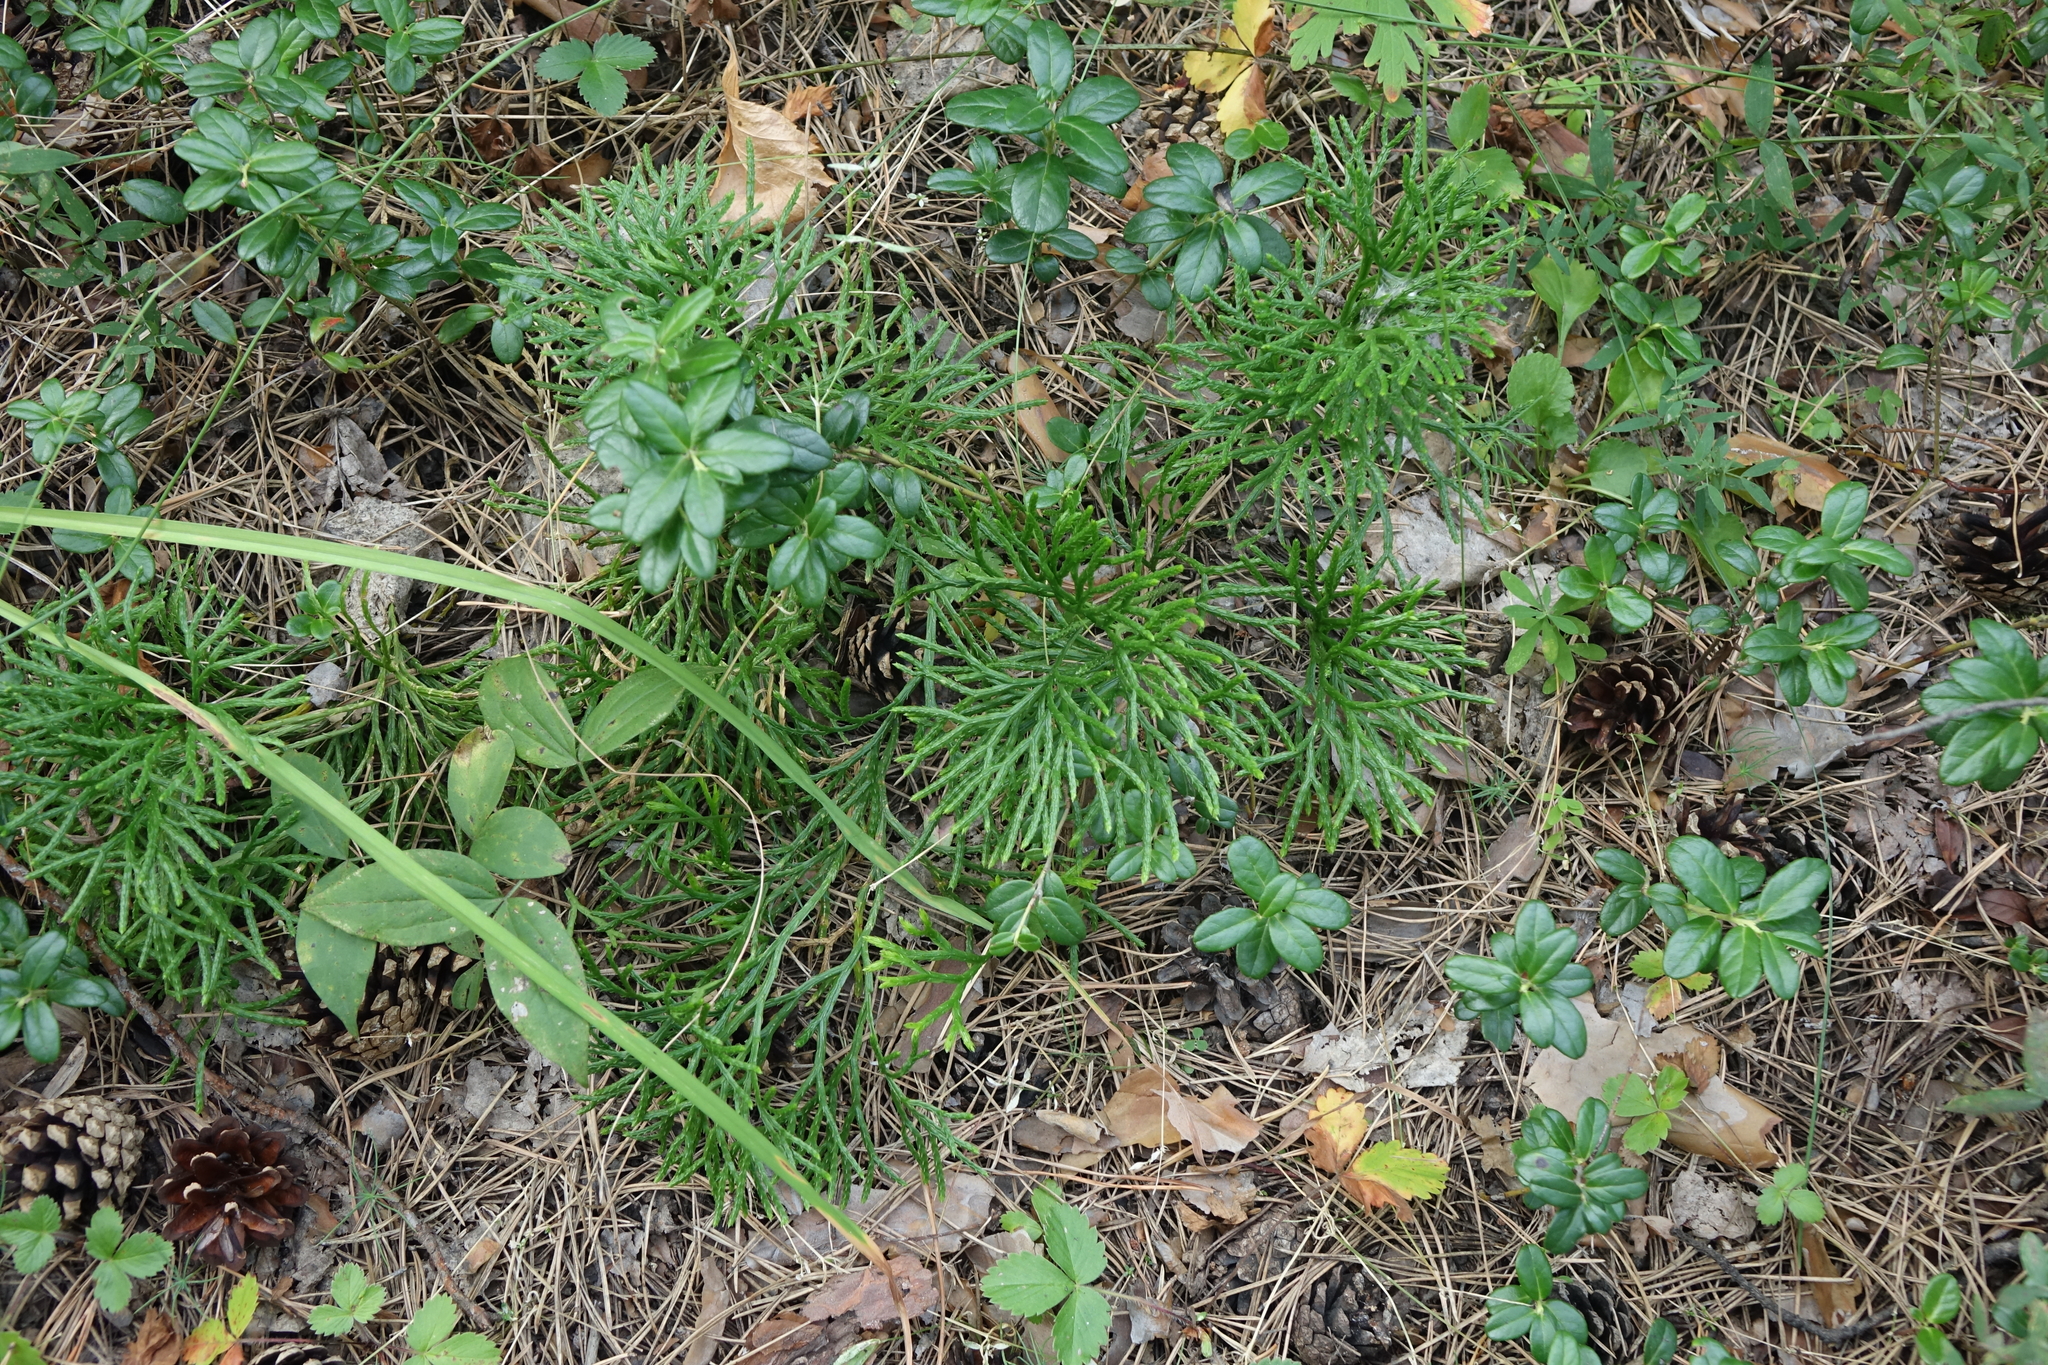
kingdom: Plantae
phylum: Tracheophyta
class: Lycopodiopsida
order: Lycopodiales
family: Lycopodiaceae
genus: Diphasiastrum
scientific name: Diphasiastrum complanatum
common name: Northern running-pine
